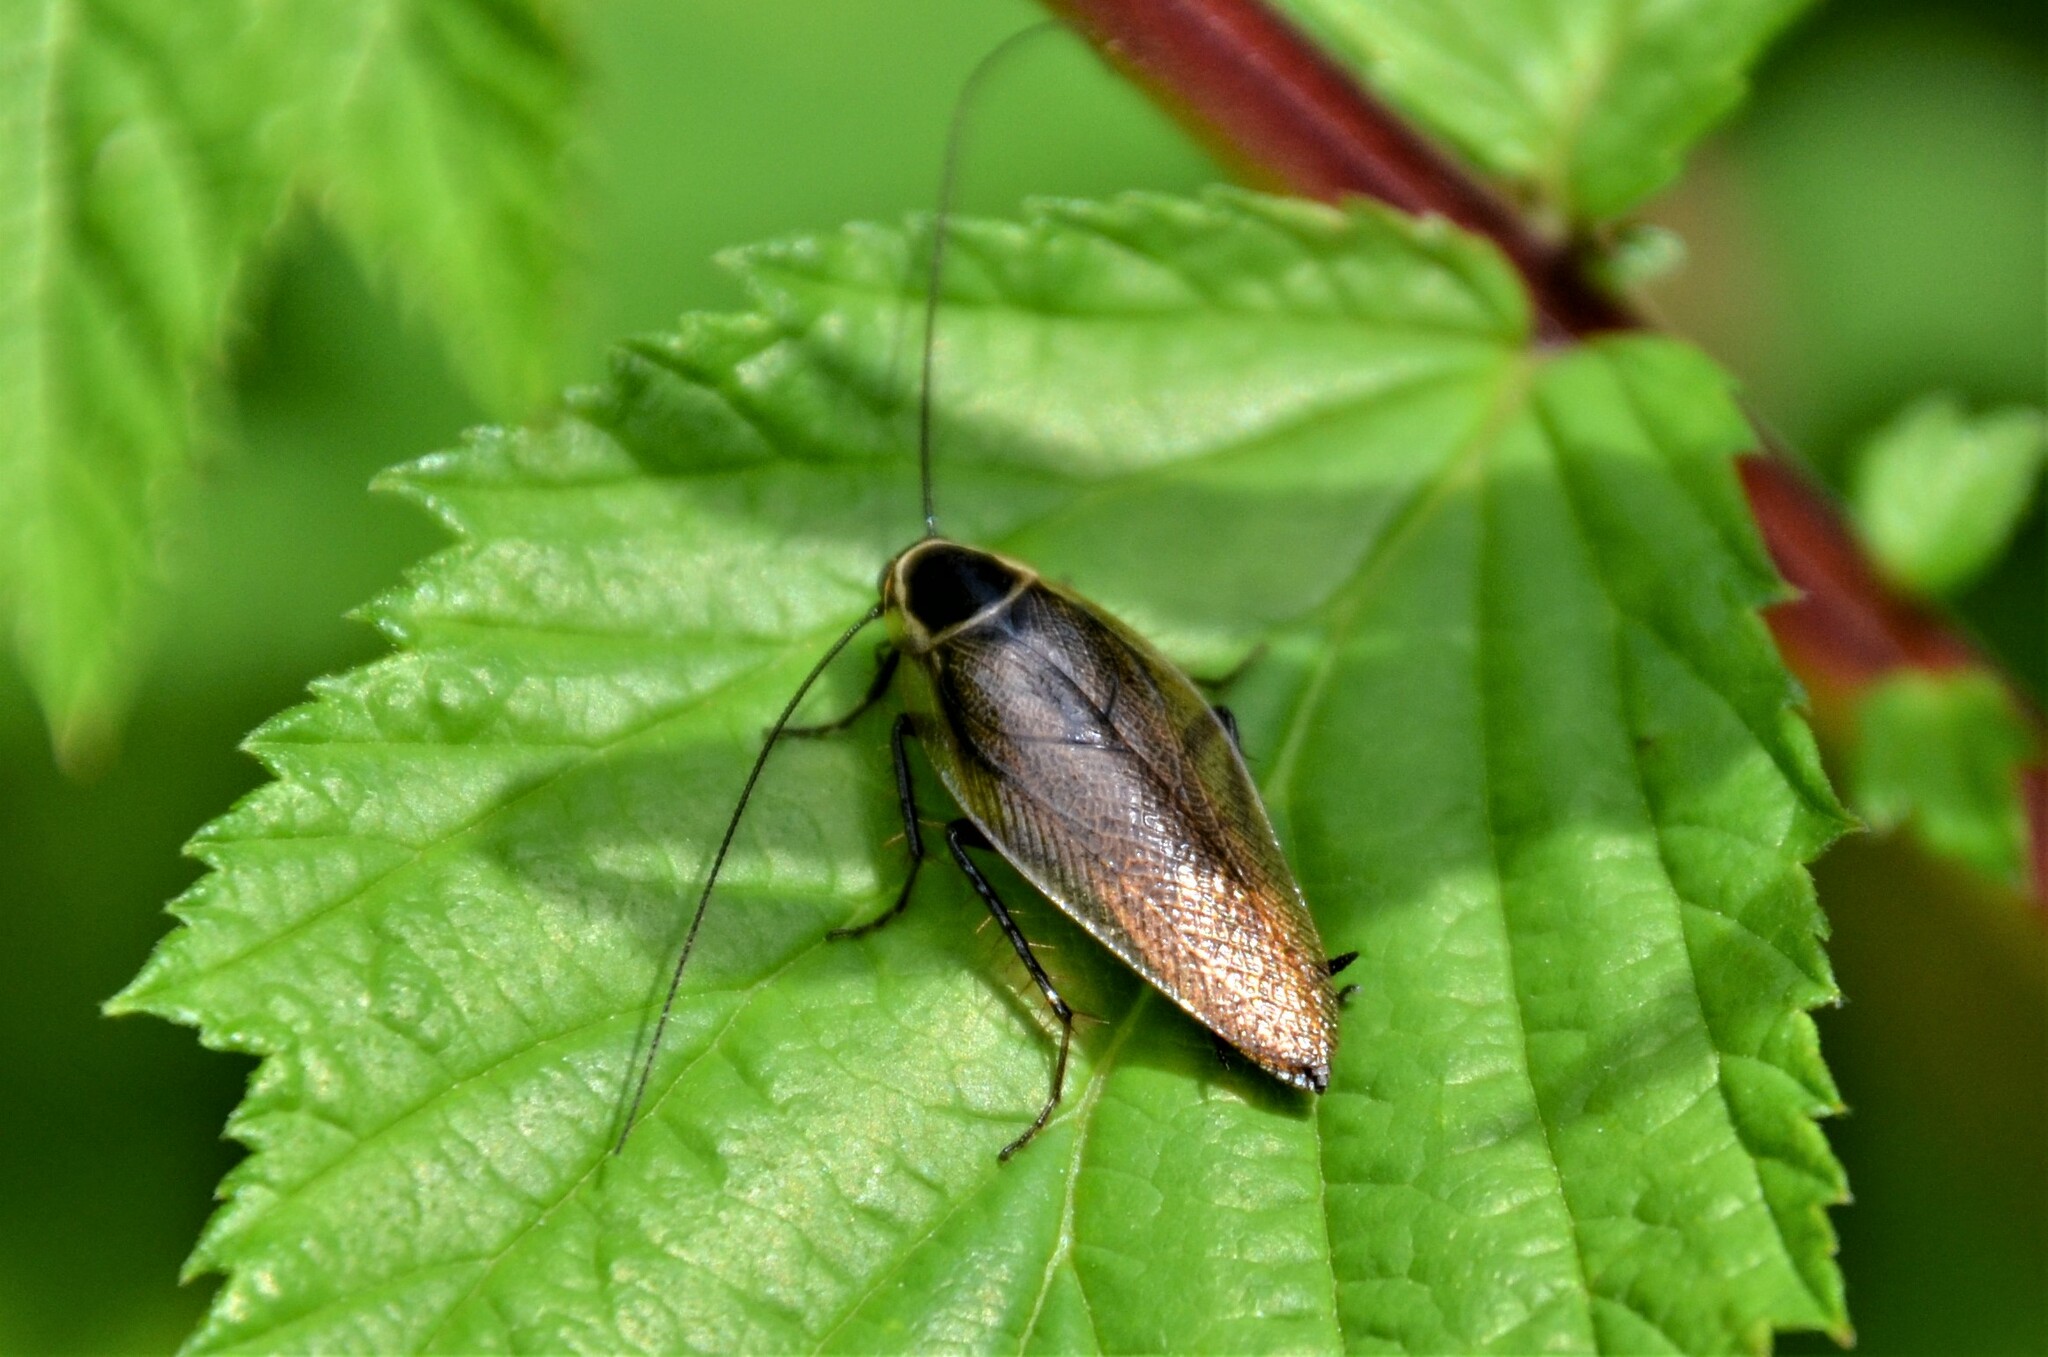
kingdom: Animalia
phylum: Arthropoda
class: Insecta
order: Blattodea
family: Ectobiidae
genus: Ectobius
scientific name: Ectobius sylvestris
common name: Forest cockroach
